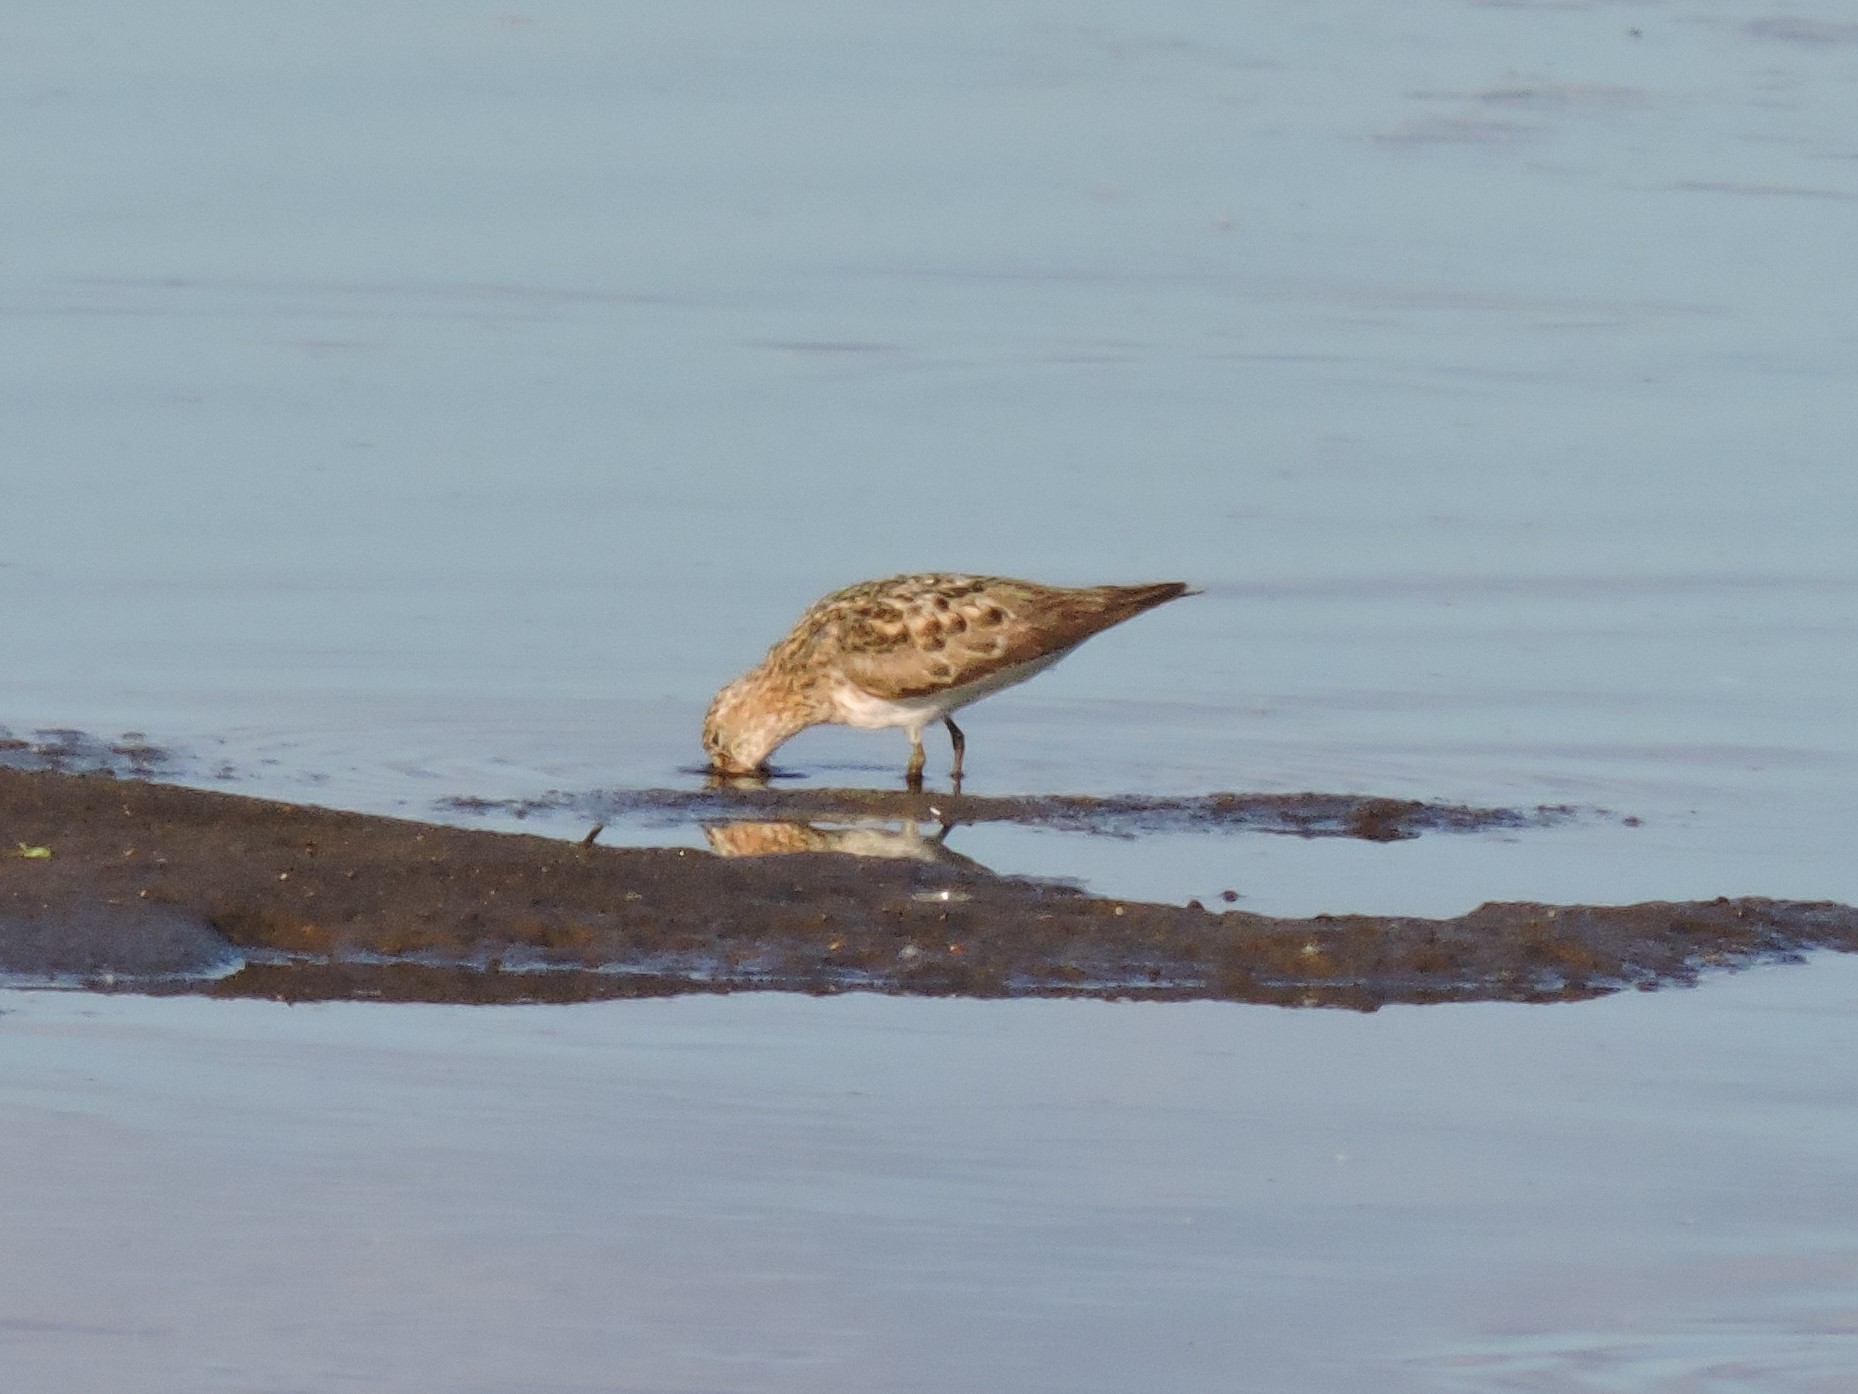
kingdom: Animalia
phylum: Chordata
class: Aves
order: Charadriiformes
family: Scolopacidae
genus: Calidris
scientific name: Calidris temminckii
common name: Temminck's stint
